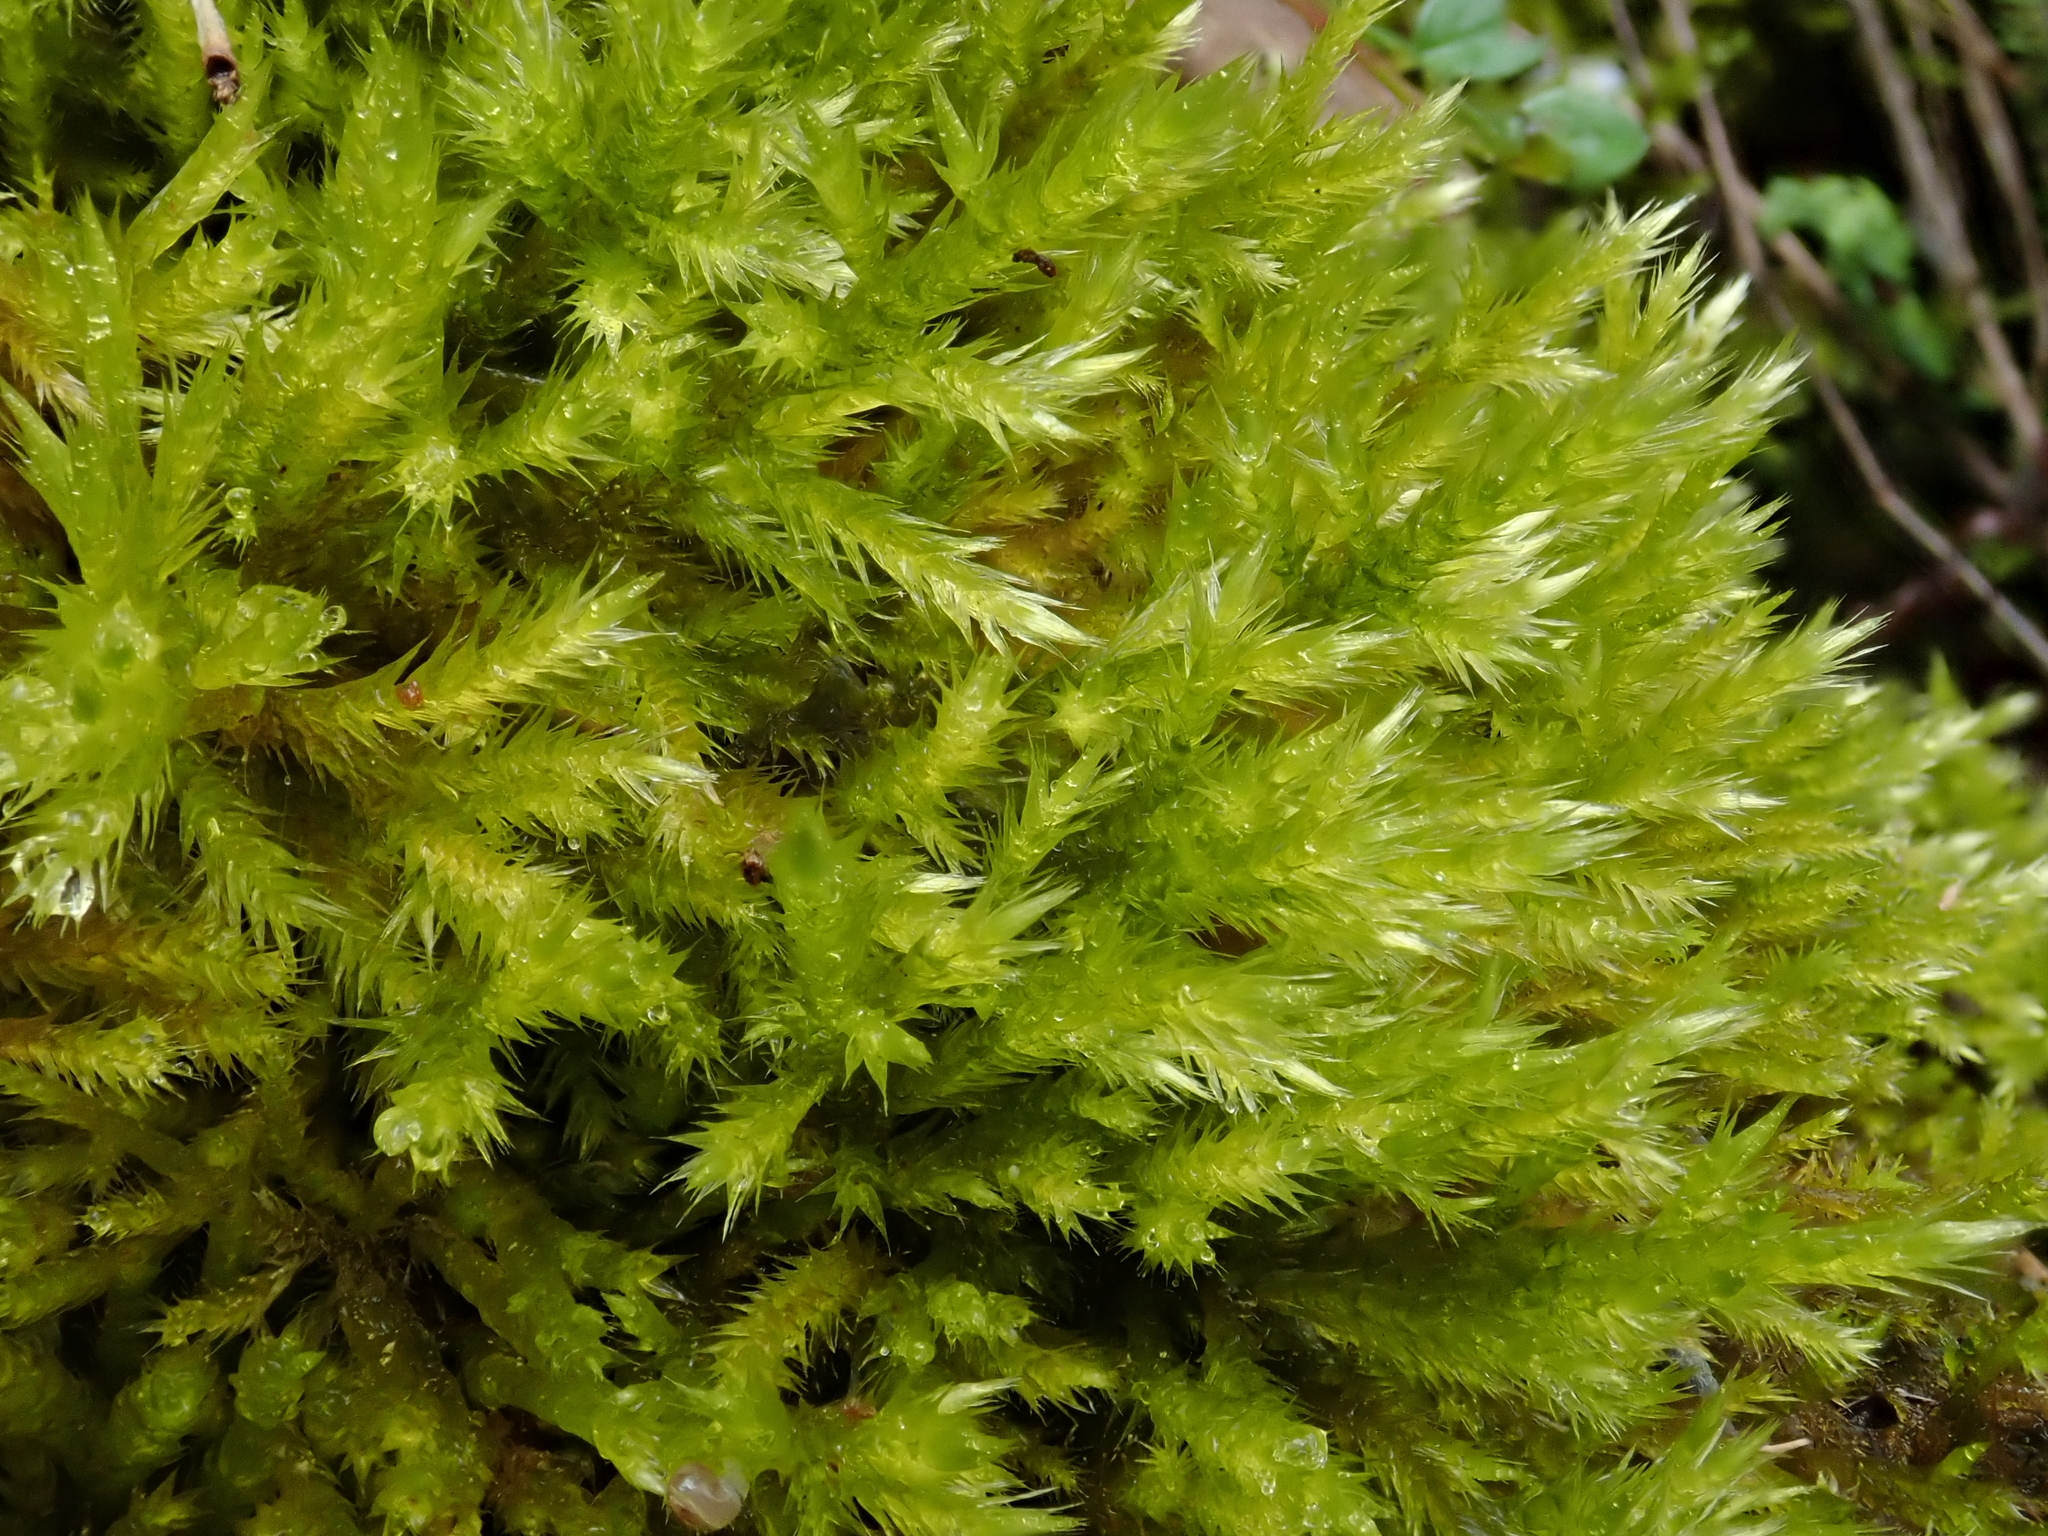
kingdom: Plantae
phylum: Bryophyta
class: Bryopsida
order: Hypnales
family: Brachytheciaceae
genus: Homalothecium
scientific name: Homalothecium lutescens
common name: Yellow feather-moss
